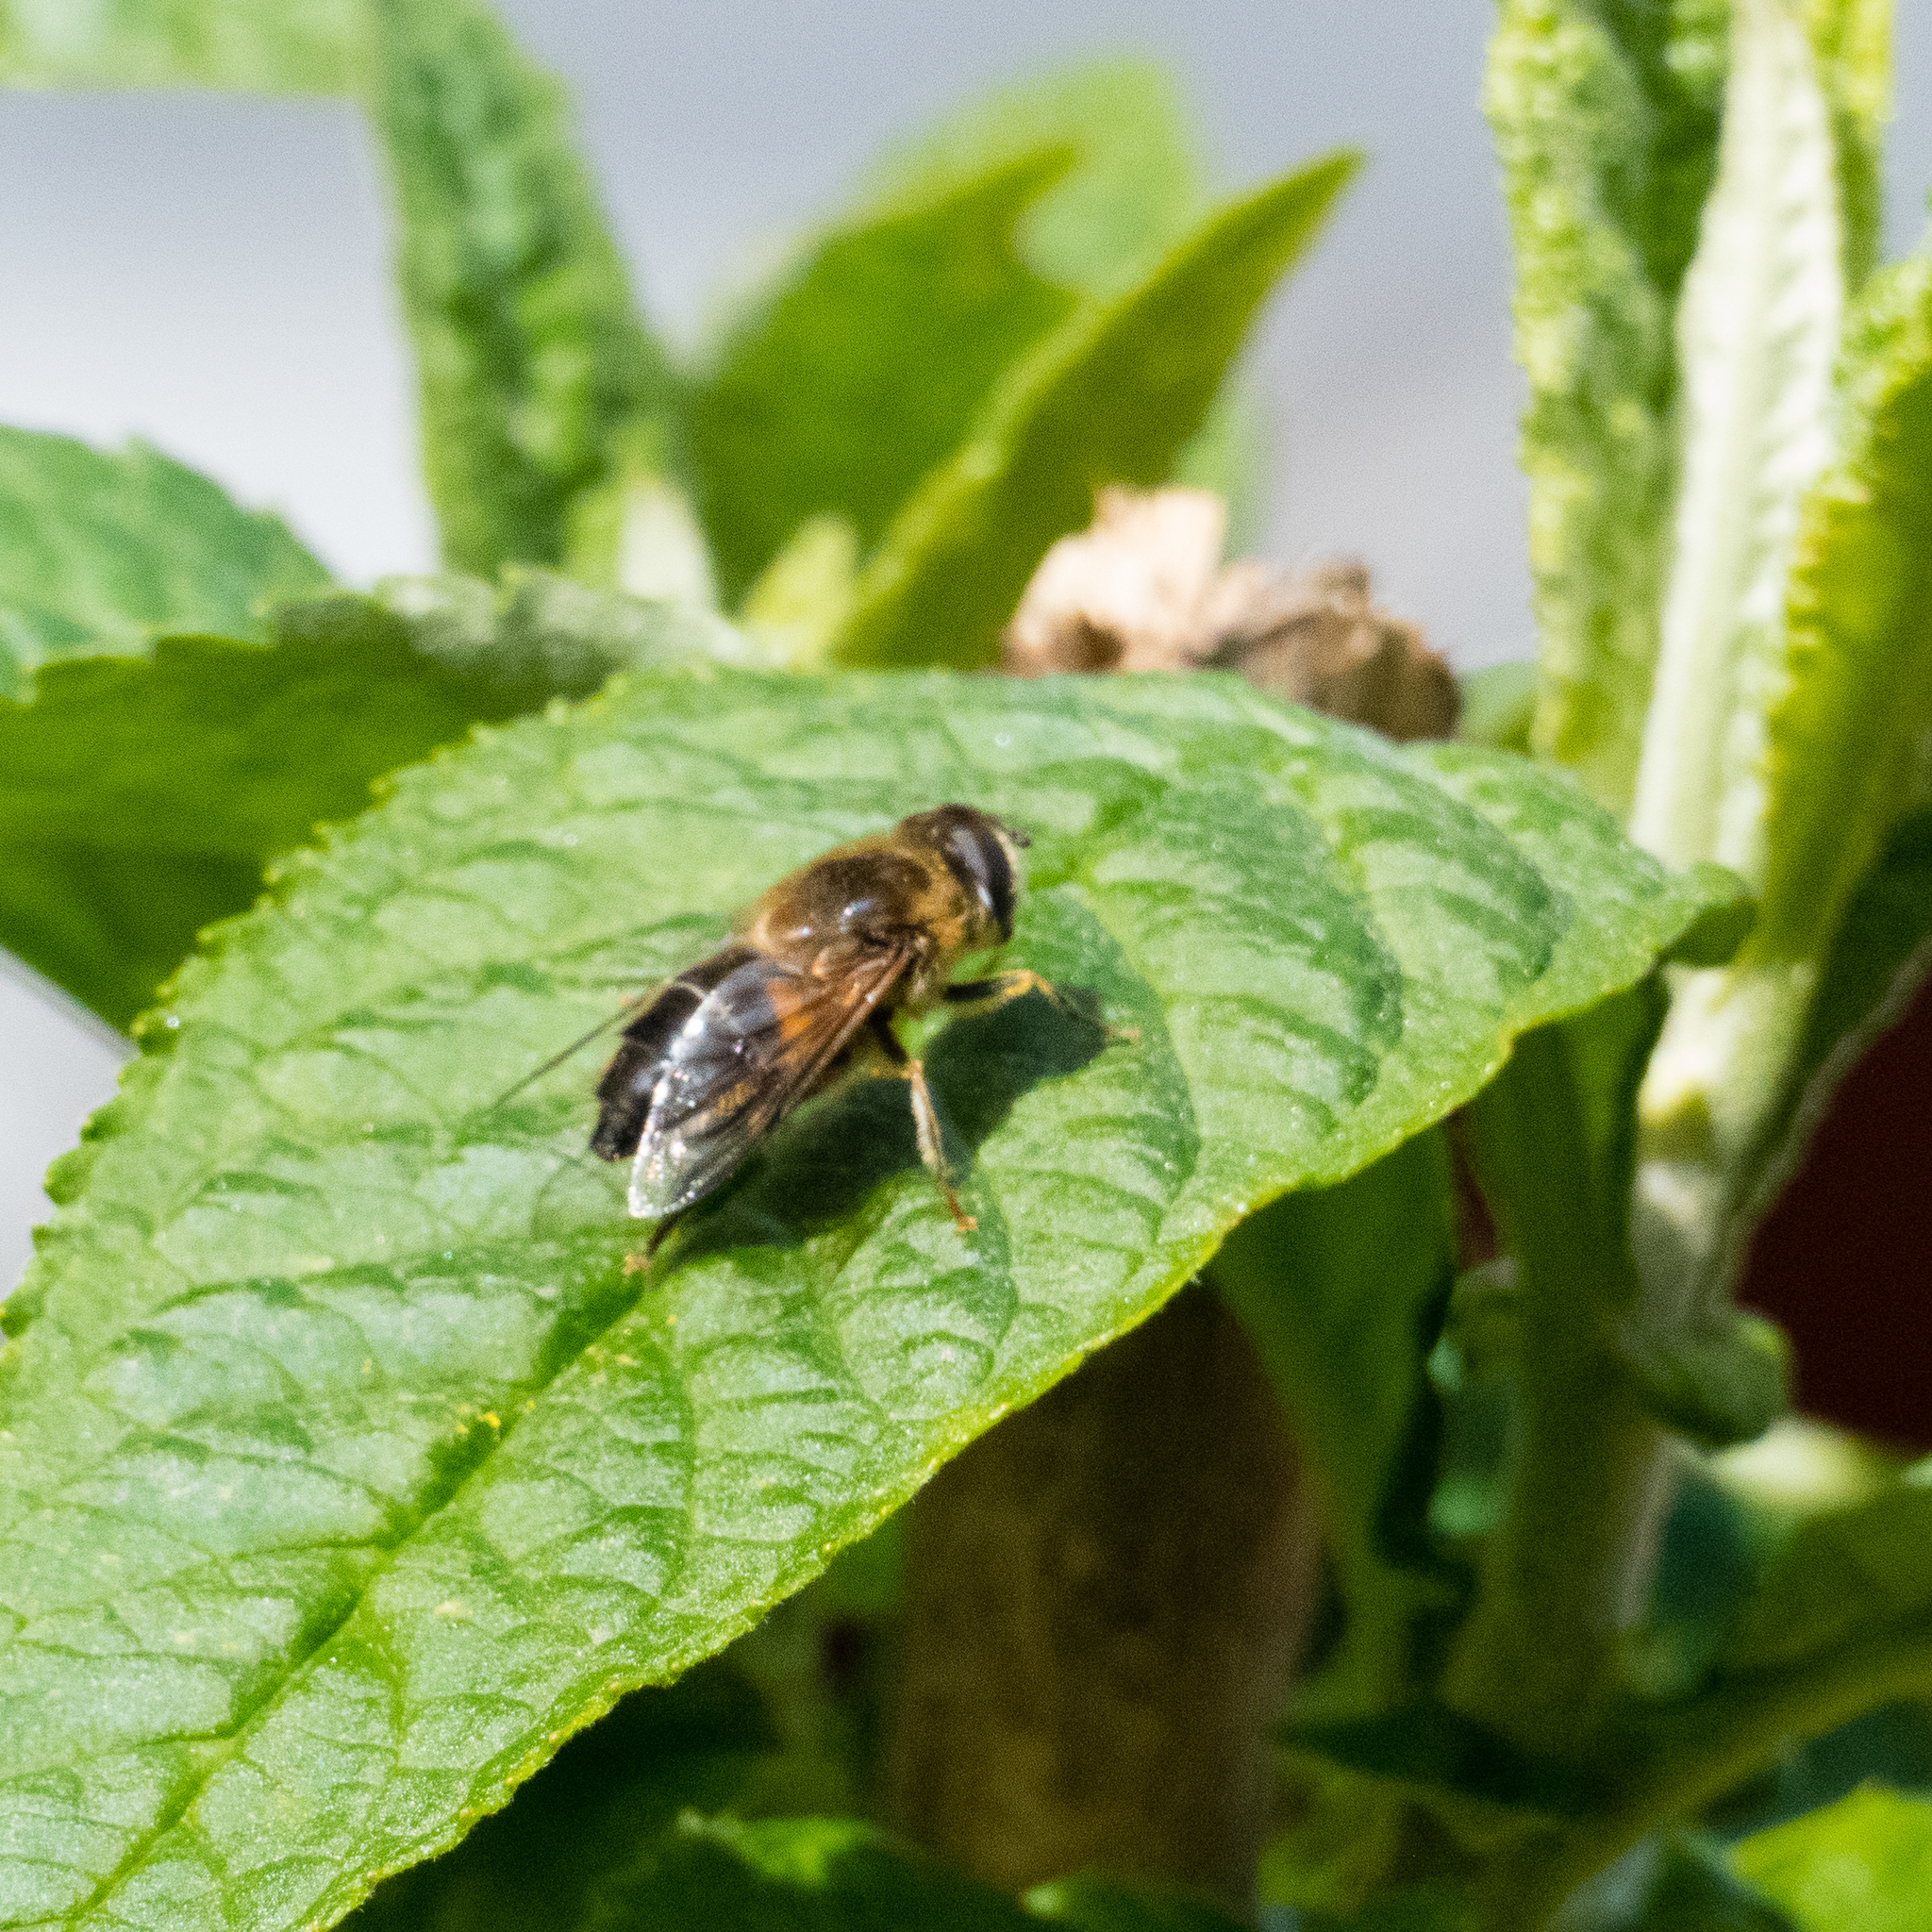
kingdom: Animalia
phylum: Arthropoda
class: Insecta
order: Diptera
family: Syrphidae
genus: Eristalis
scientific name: Eristalis pertinax
